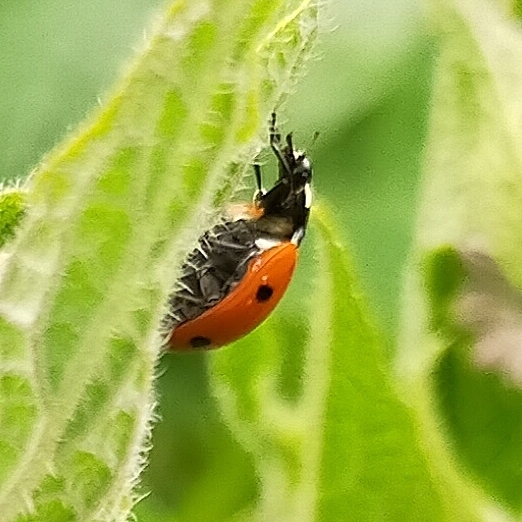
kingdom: Animalia
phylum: Arthropoda
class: Insecta
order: Coleoptera
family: Coccinellidae
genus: Coccinella
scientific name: Coccinella septempunctata
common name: Sevenspotted lady beetle
